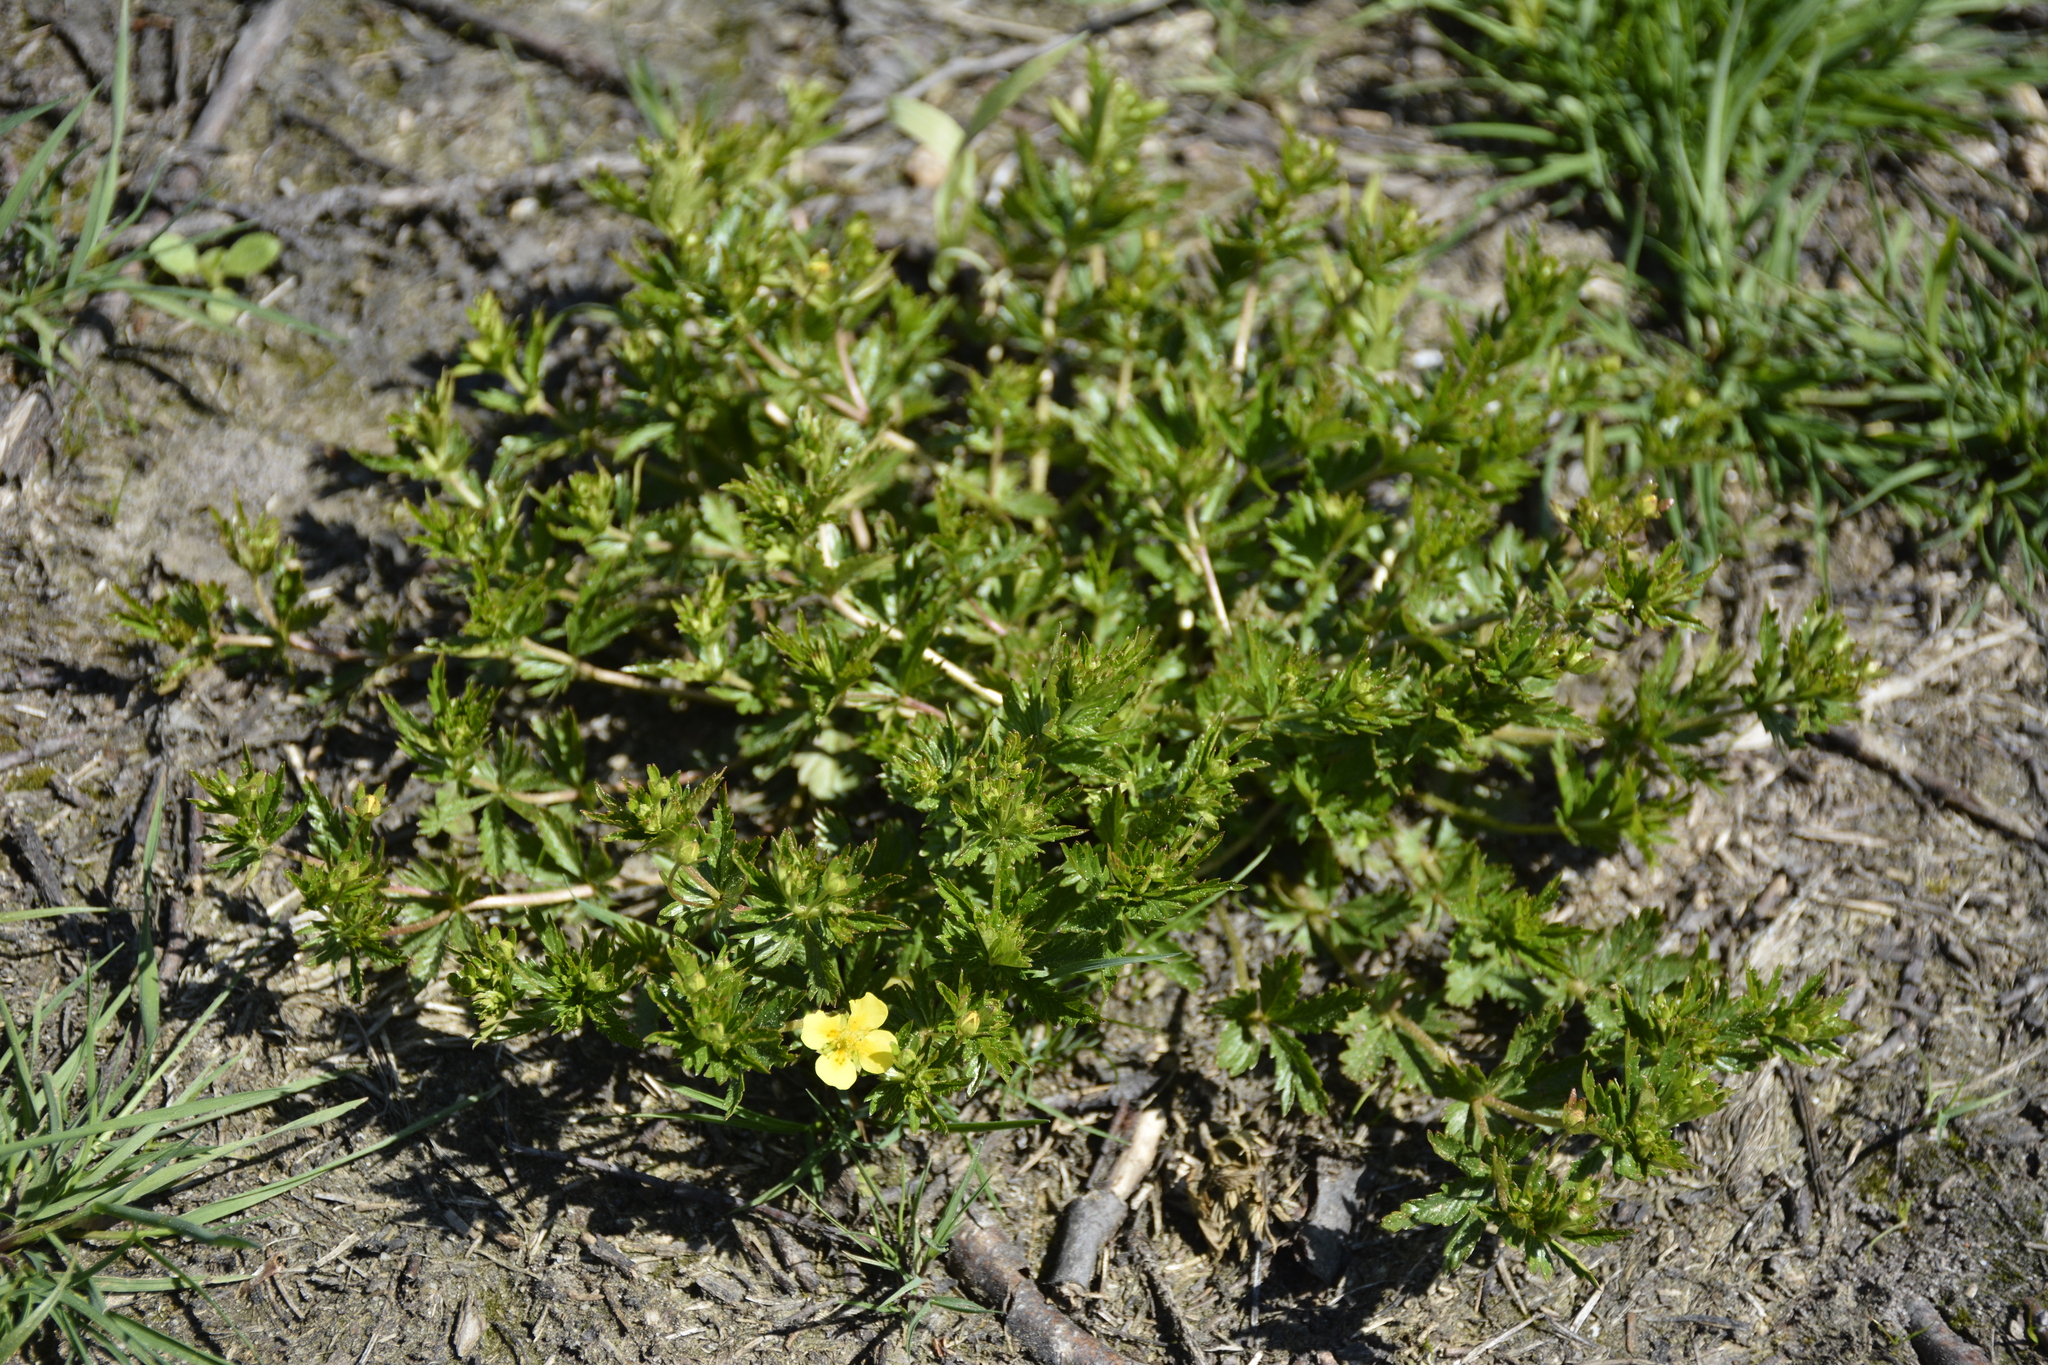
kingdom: Plantae
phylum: Tracheophyta
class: Magnoliopsida
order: Rosales
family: Rosaceae
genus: Potentilla
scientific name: Potentilla erecta
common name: Tormentil
